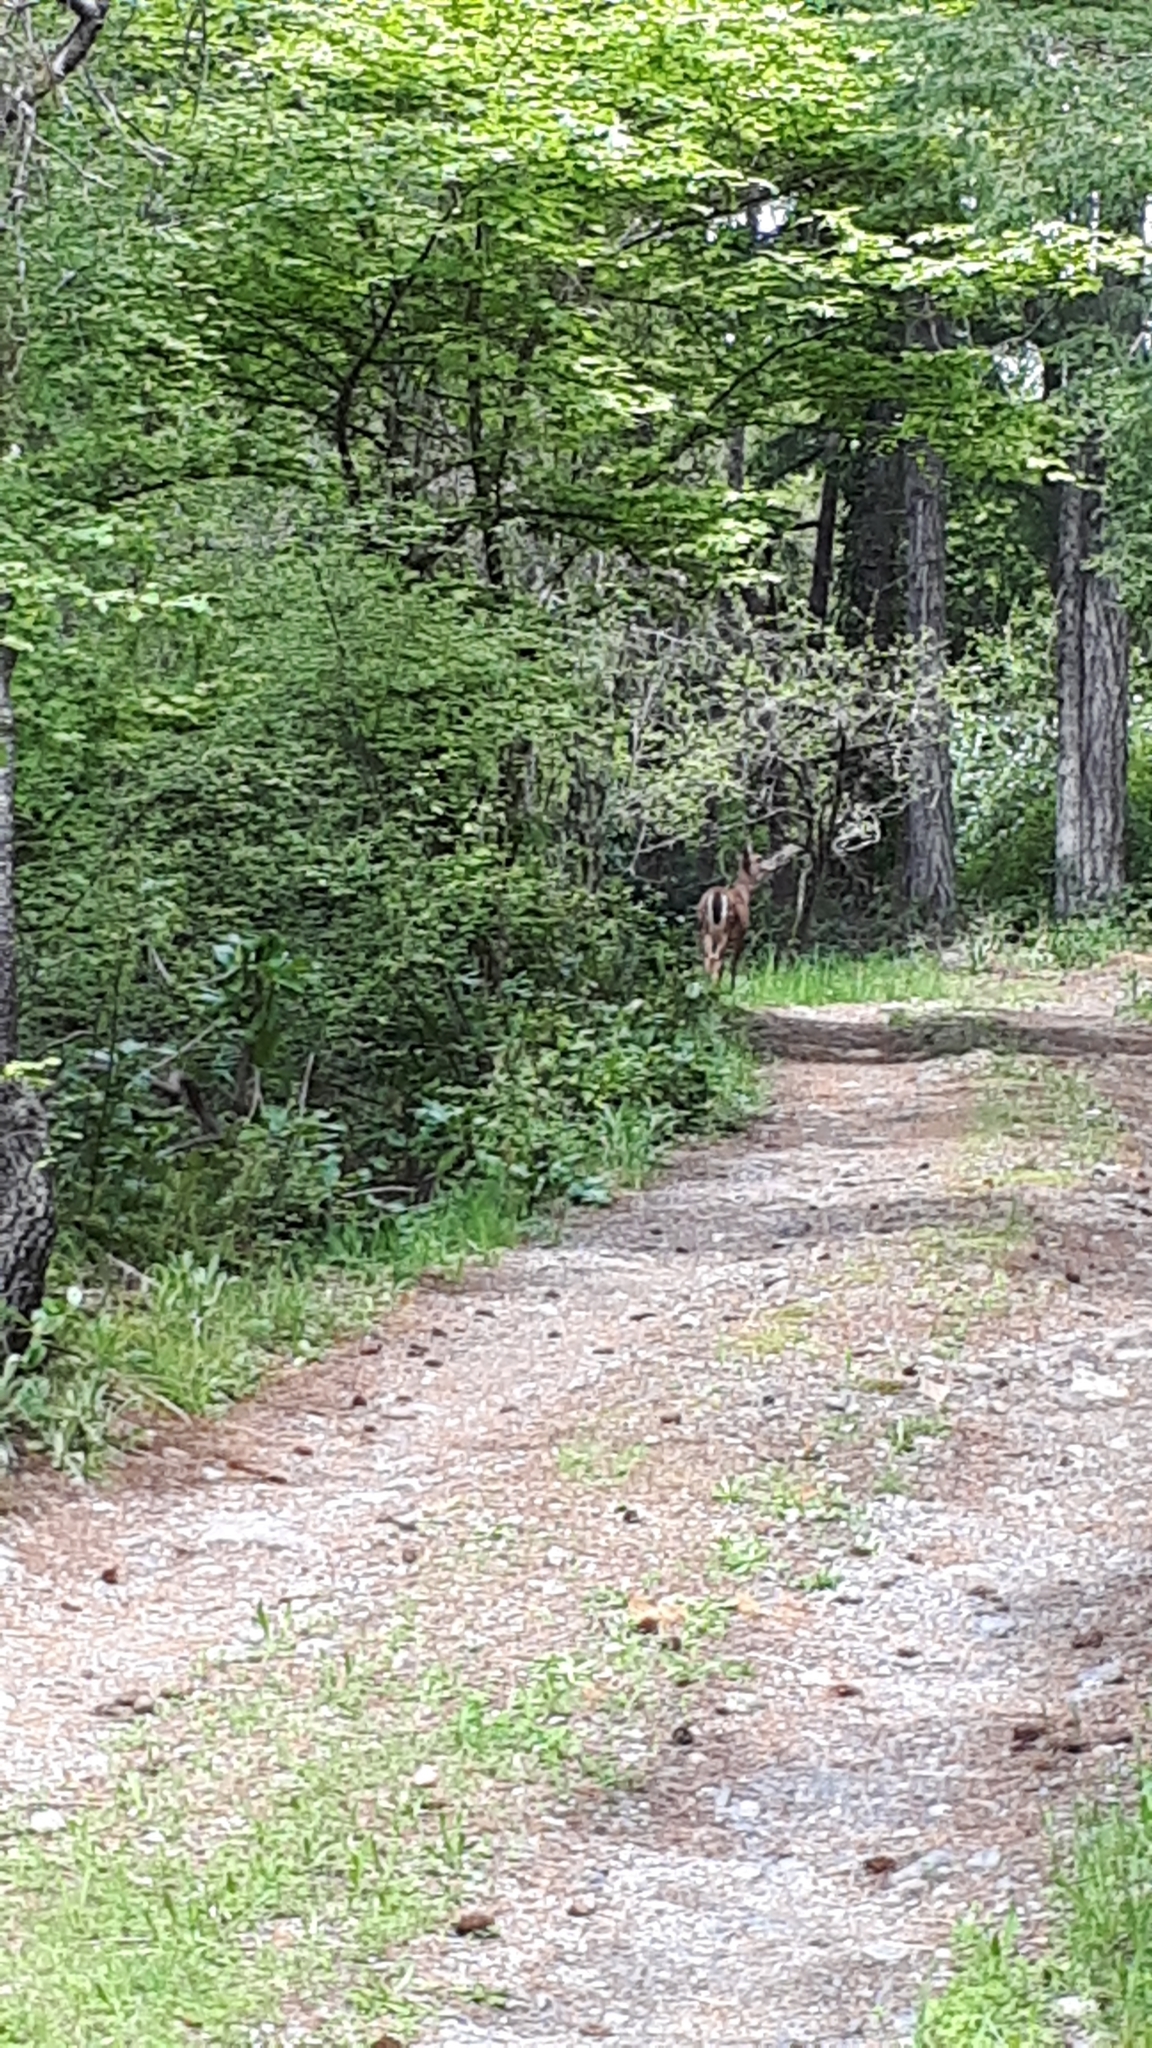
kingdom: Animalia
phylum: Chordata
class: Mammalia
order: Artiodactyla
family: Cervidae
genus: Odocoileus
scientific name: Odocoileus hemionus
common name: Mule deer
